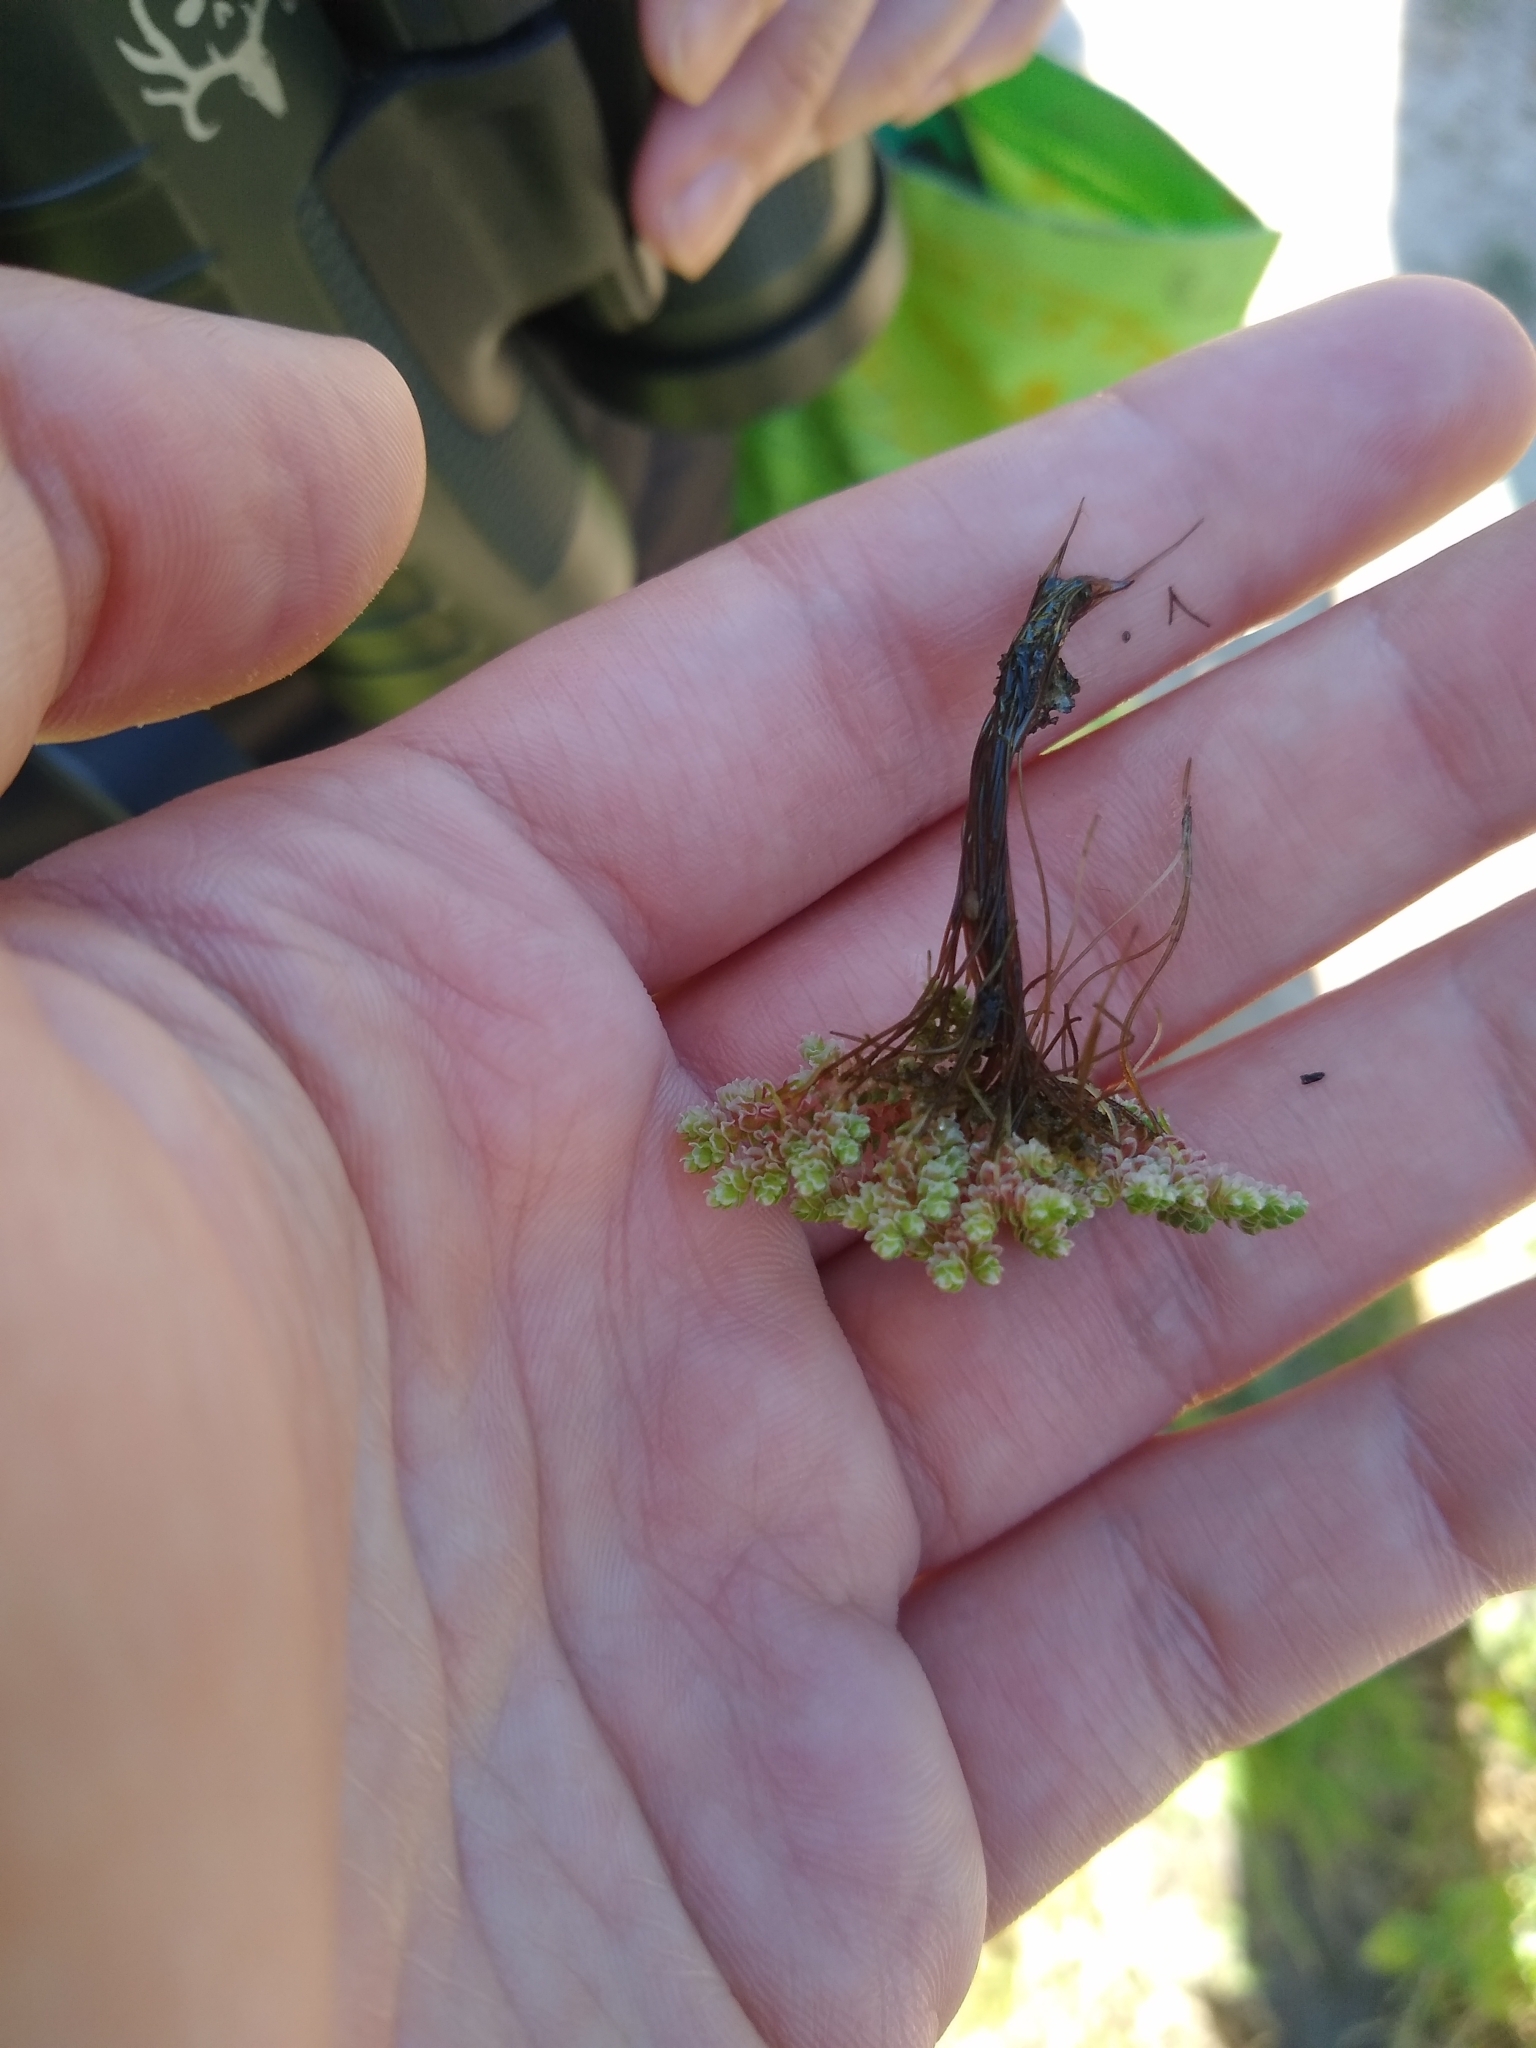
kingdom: Plantae
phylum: Tracheophyta
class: Polypodiopsida
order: Salviniales
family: Salviniaceae
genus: Azolla
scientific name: Azolla filiculoides
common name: Water fern
